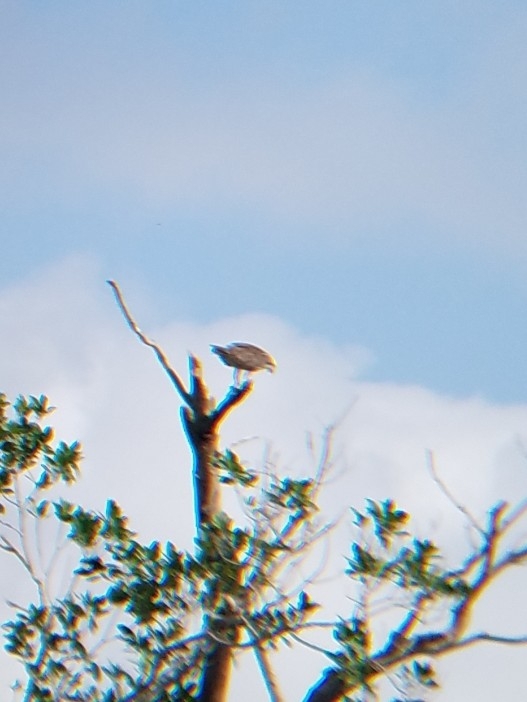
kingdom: Animalia
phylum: Chordata
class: Aves
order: Accipitriformes
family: Pandionidae
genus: Pandion
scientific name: Pandion haliaetus
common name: Osprey
